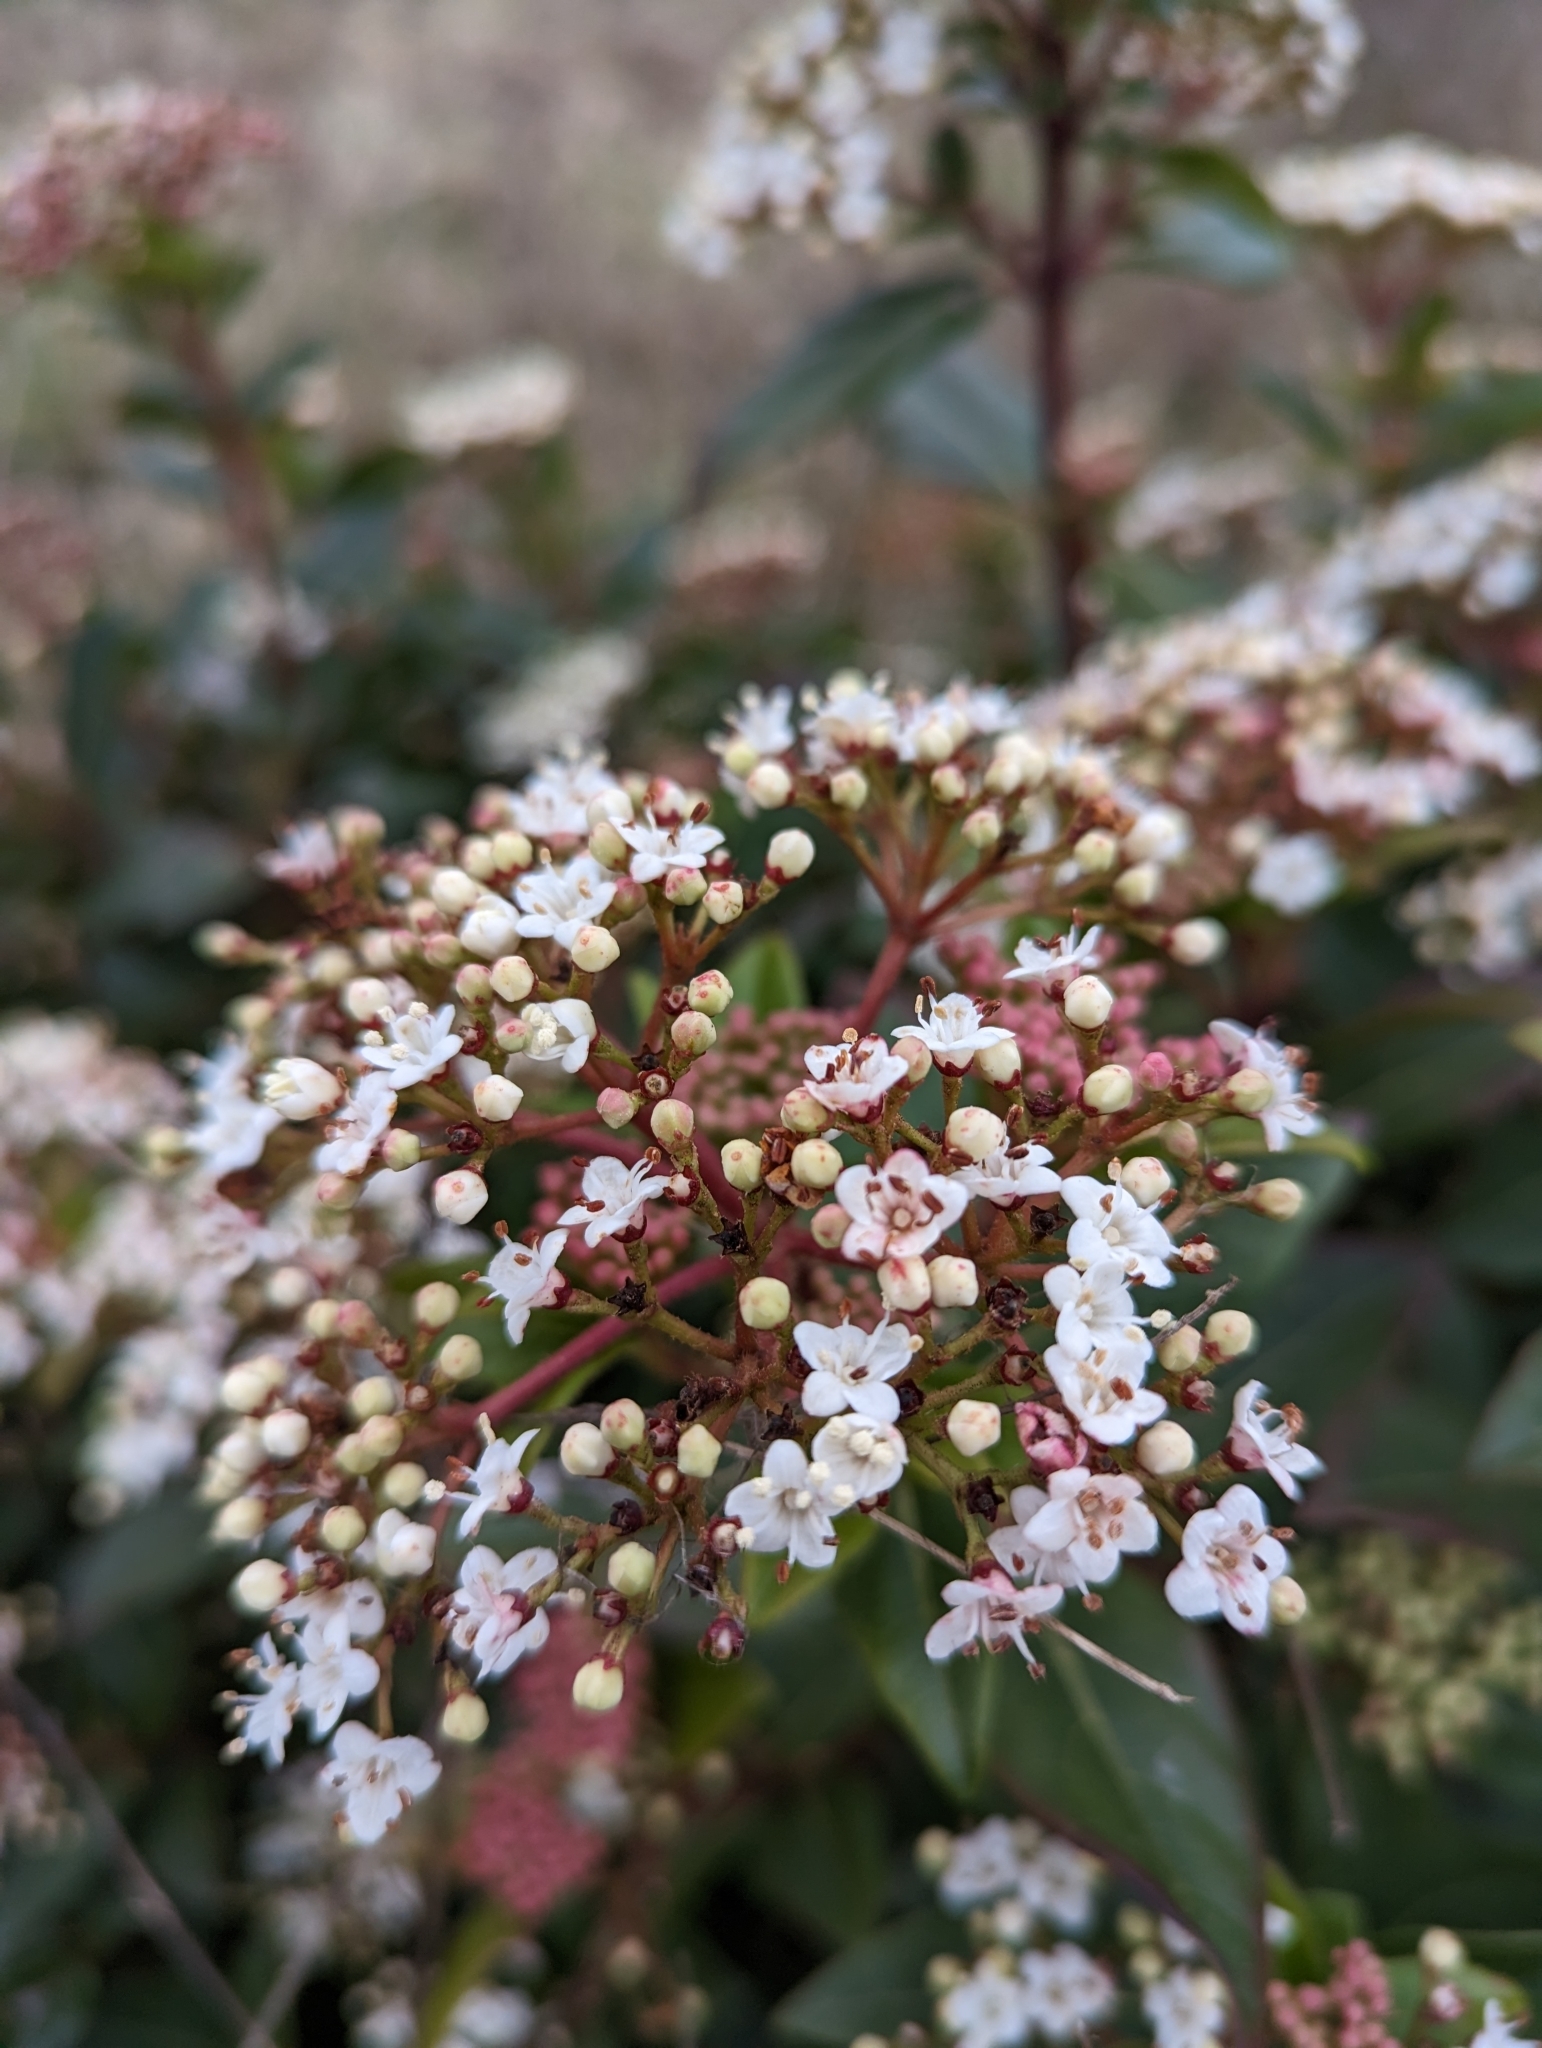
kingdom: Plantae
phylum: Tracheophyta
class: Magnoliopsida
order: Dipsacales
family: Viburnaceae
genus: Viburnum
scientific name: Viburnum tinus
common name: Laurustinus
